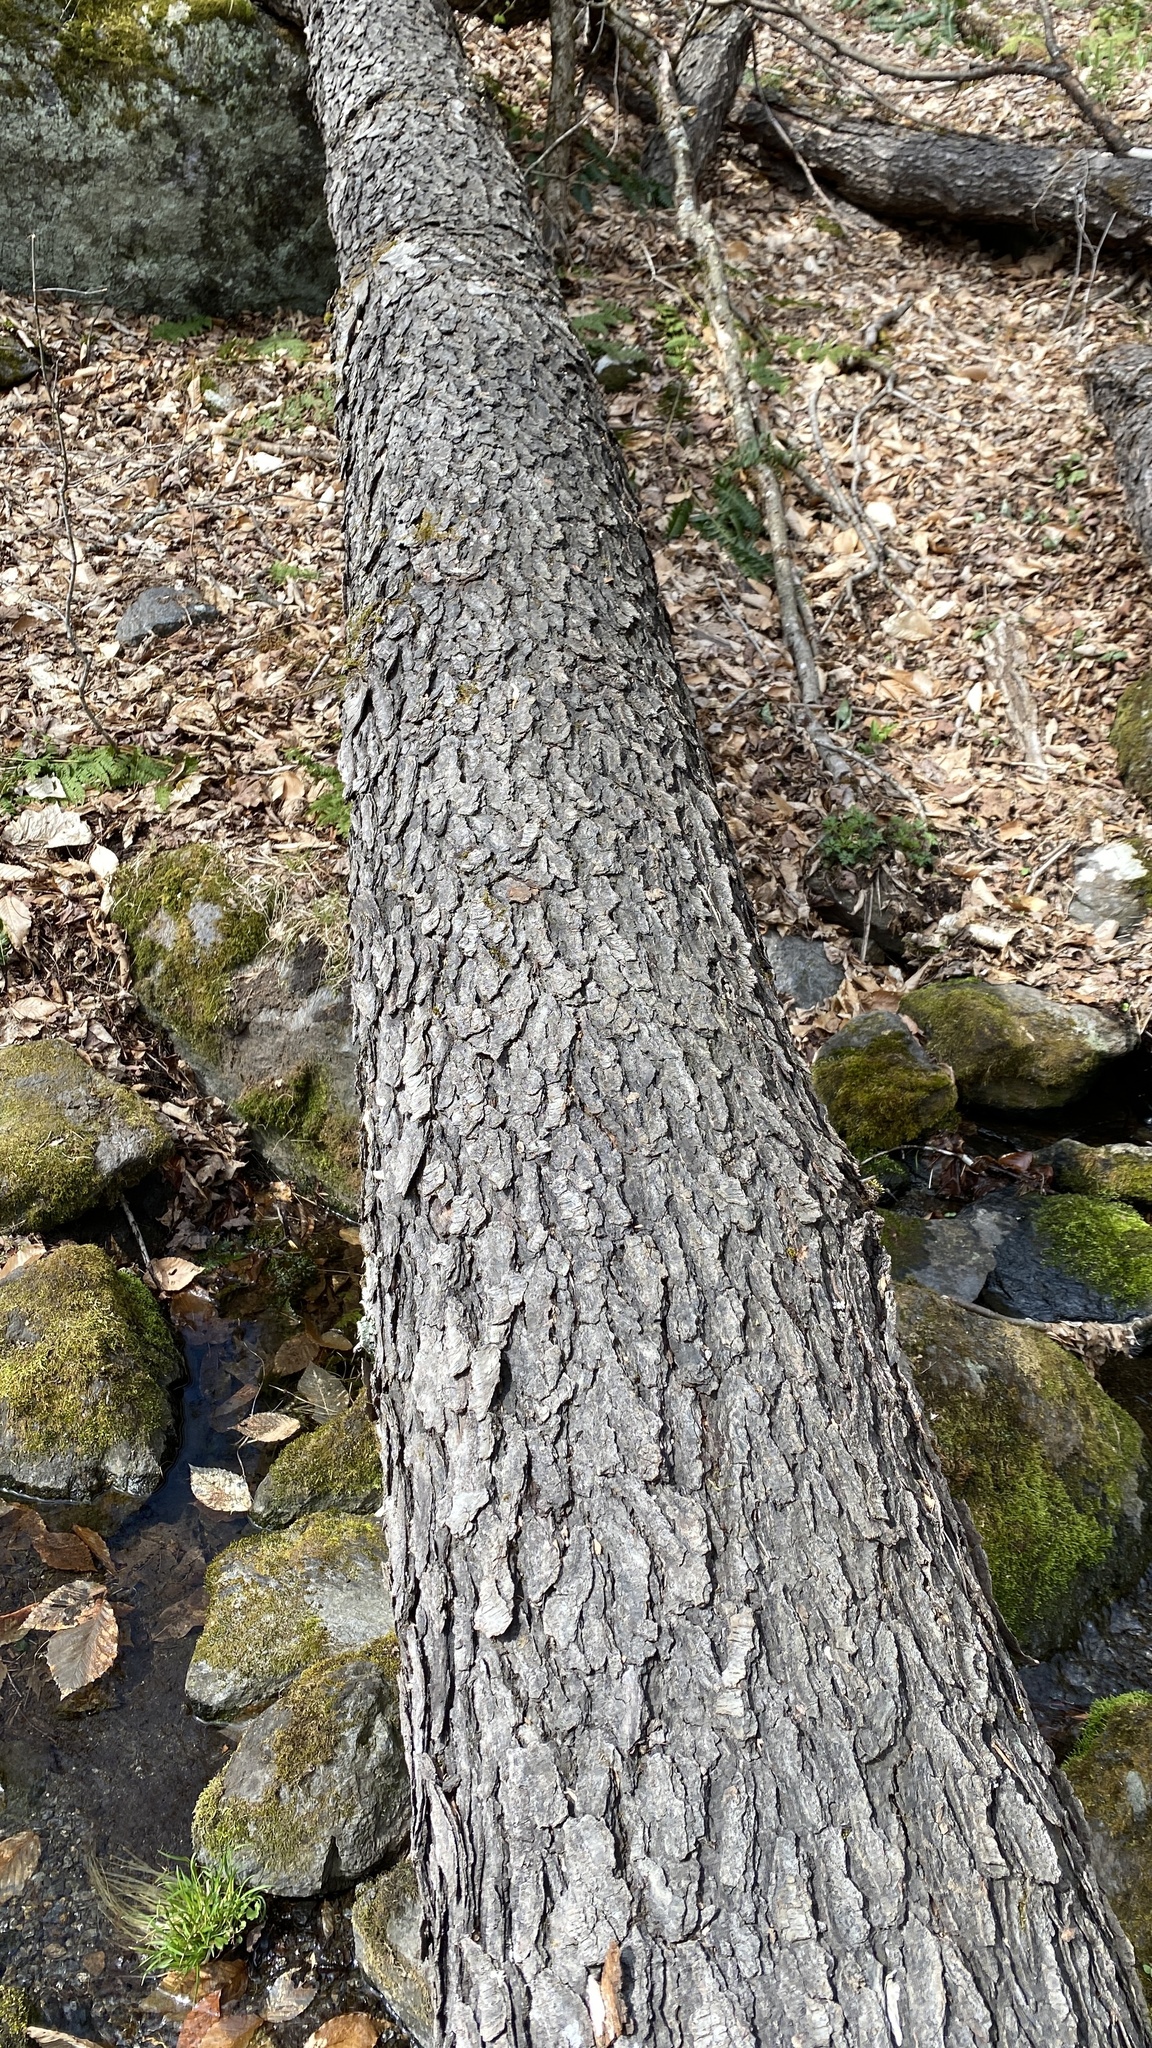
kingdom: Plantae
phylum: Tracheophyta
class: Magnoliopsida
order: Rosales
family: Rosaceae
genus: Prunus
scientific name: Prunus serotina
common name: Black cherry
